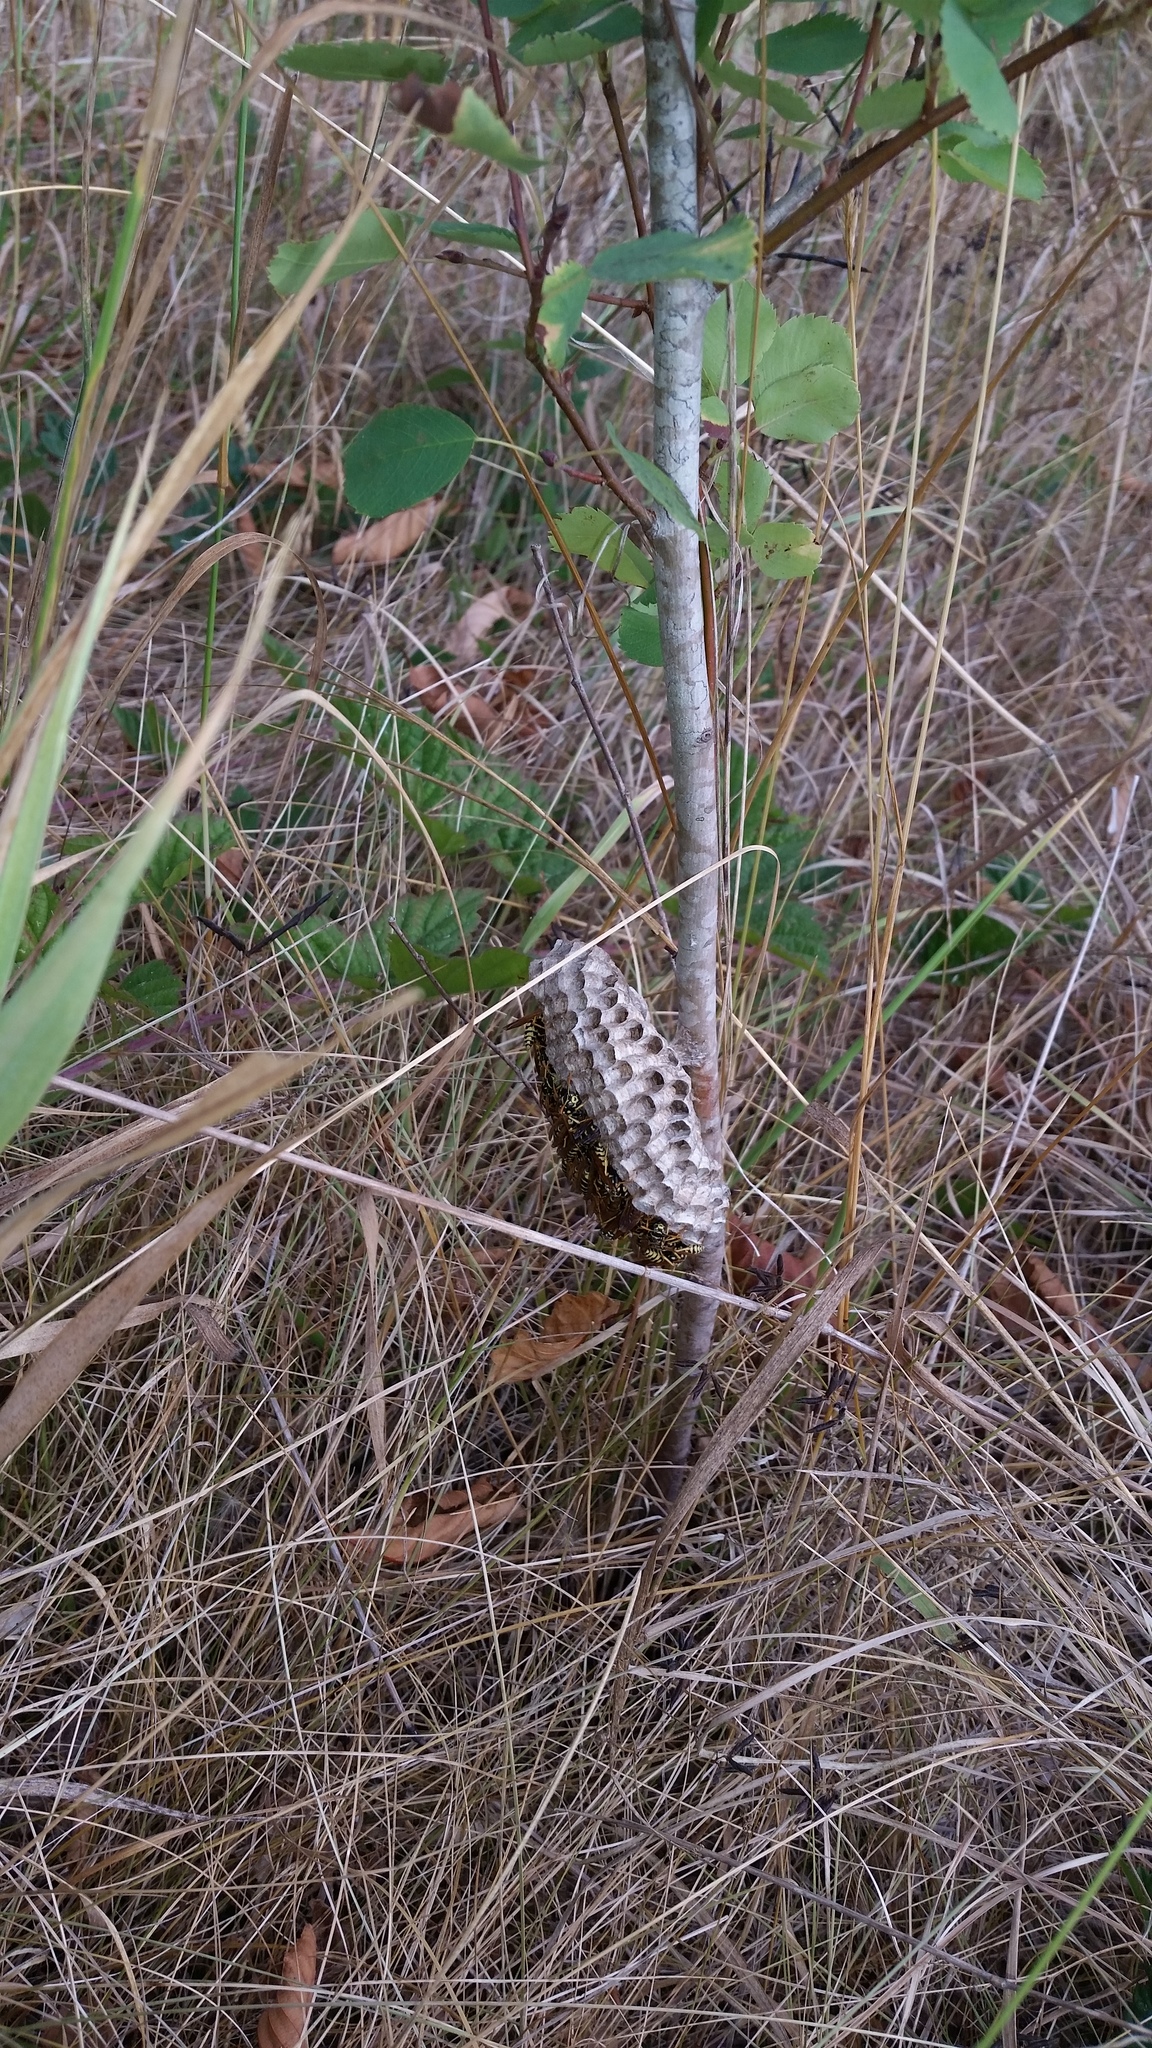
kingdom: Animalia
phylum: Arthropoda
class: Insecta
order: Hymenoptera
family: Eumenidae
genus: Polistes
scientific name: Polistes dominula
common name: Paper wasp
